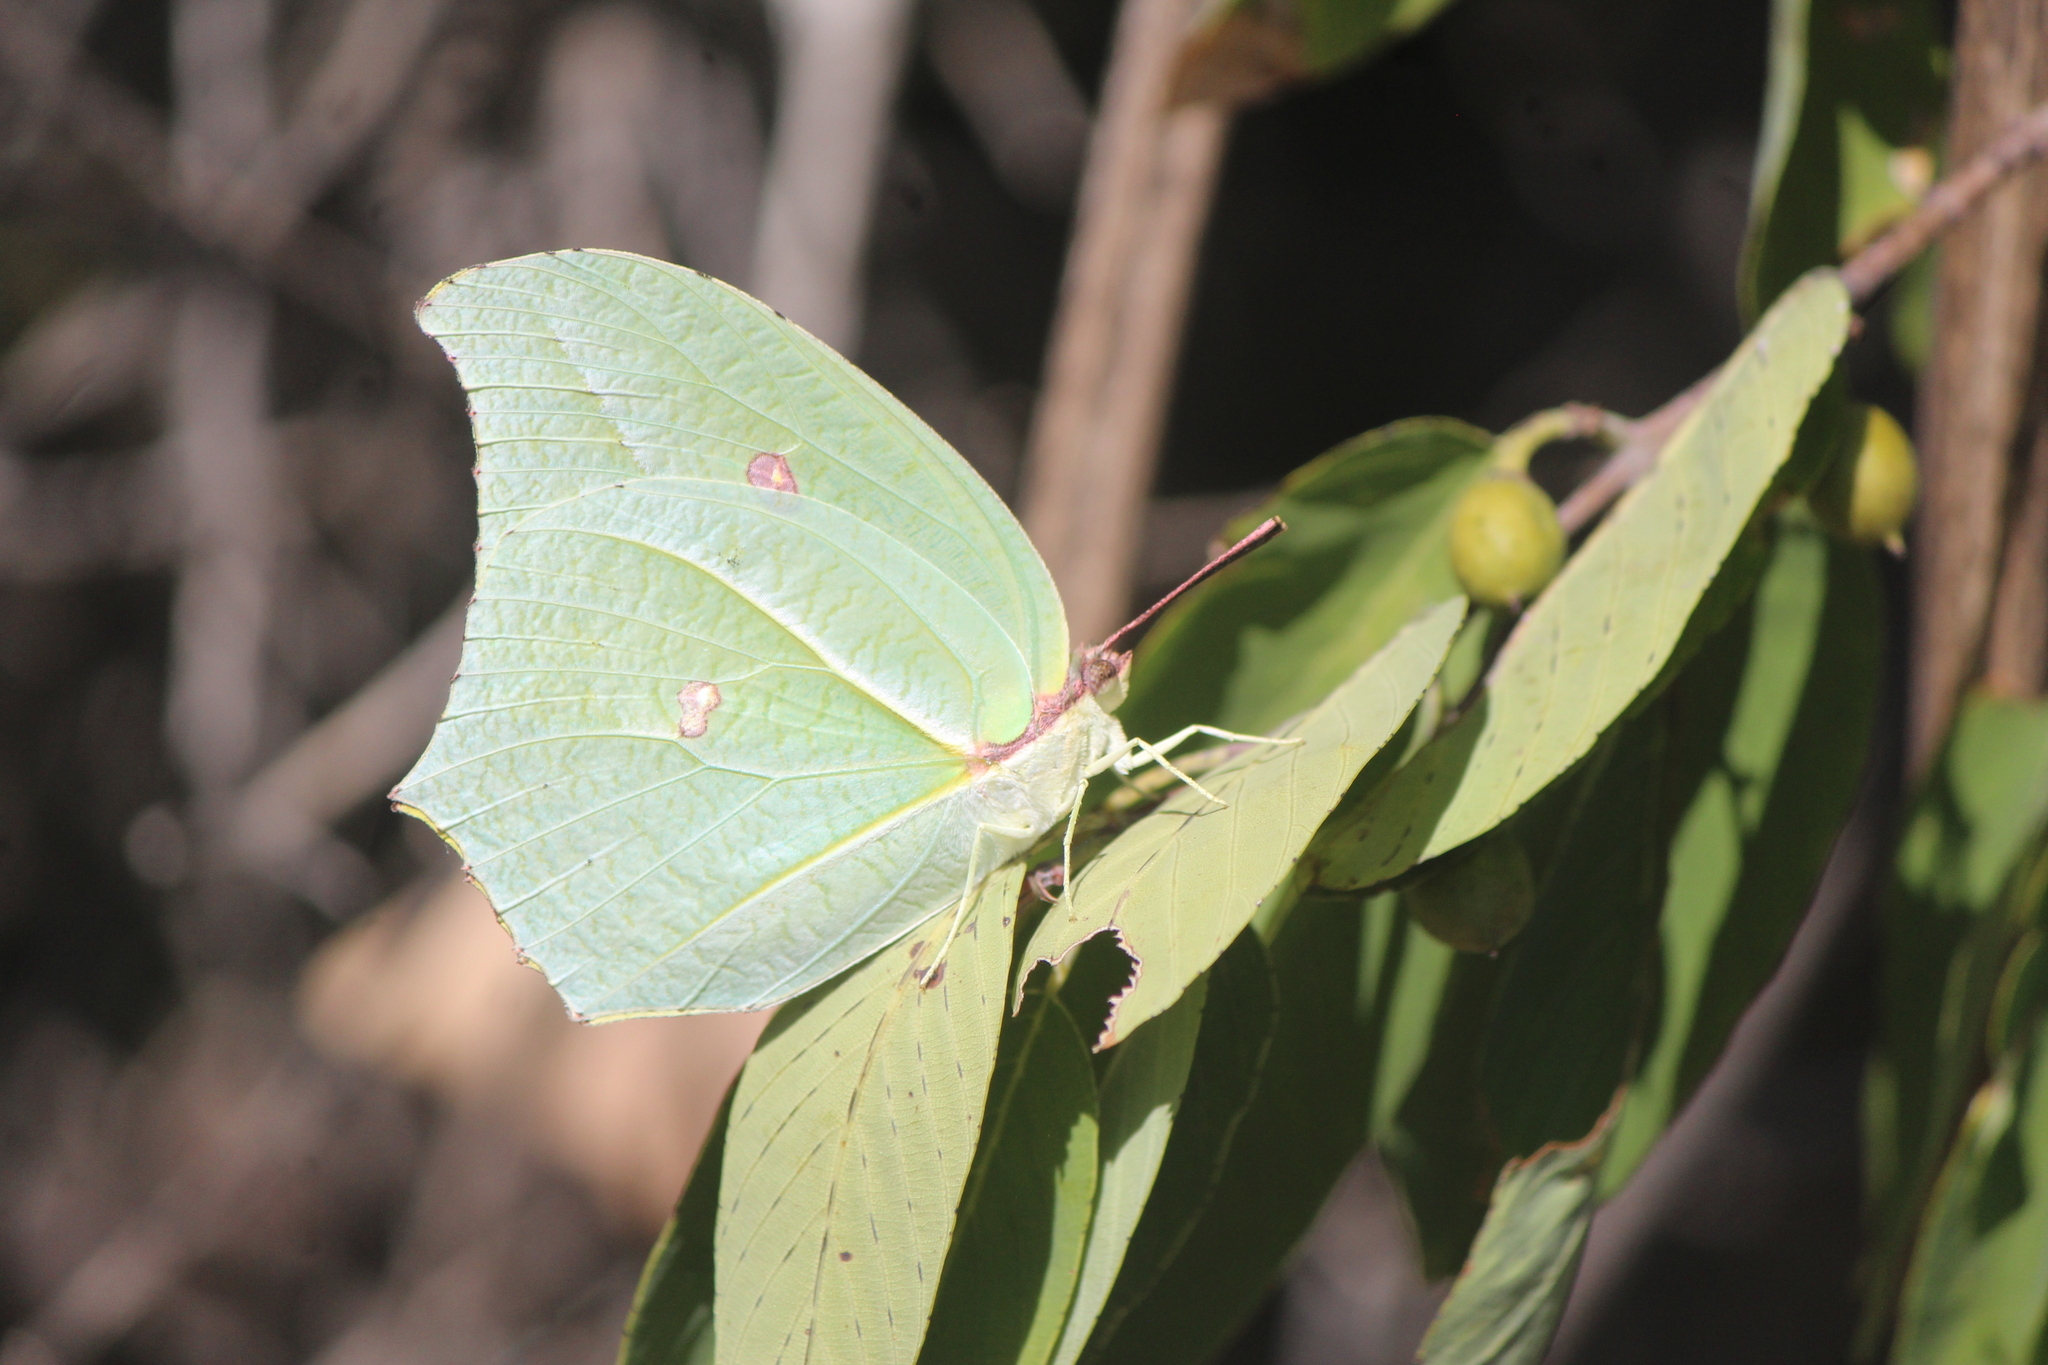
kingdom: Animalia
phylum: Arthropoda
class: Insecta
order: Lepidoptera
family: Pieridae
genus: Anteos
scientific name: Anteos maerula
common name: Angled sulphur
